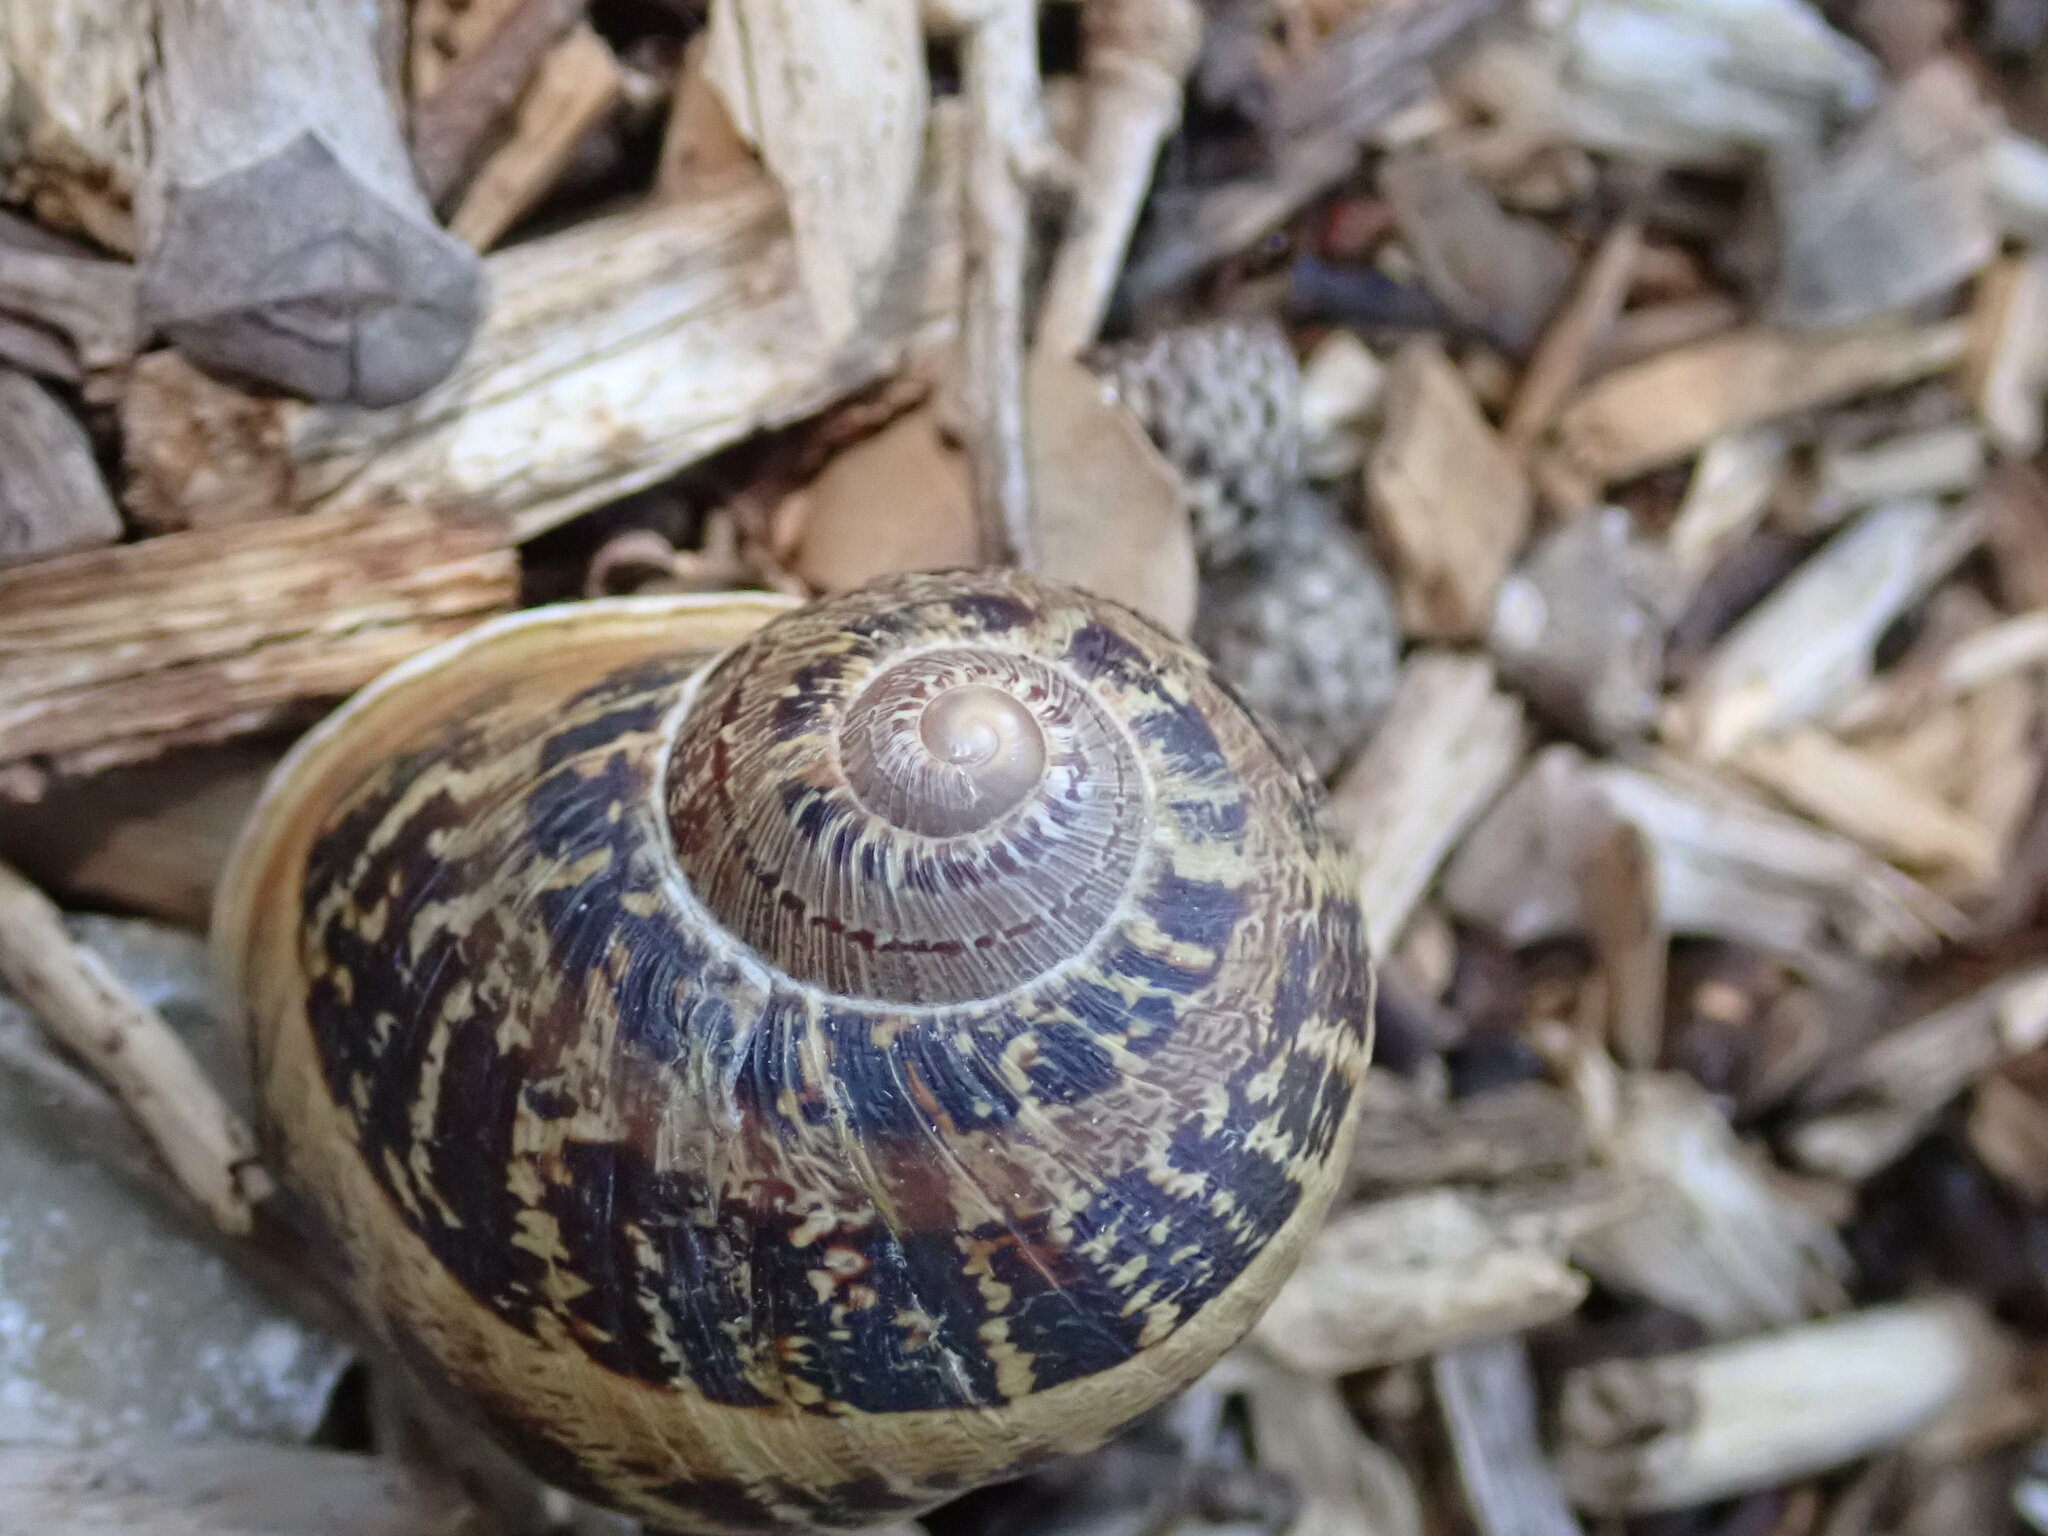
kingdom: Animalia
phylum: Mollusca
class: Gastropoda
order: Stylommatophora
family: Helicidae
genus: Cornu
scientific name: Cornu aspersum
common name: Brown garden snail
